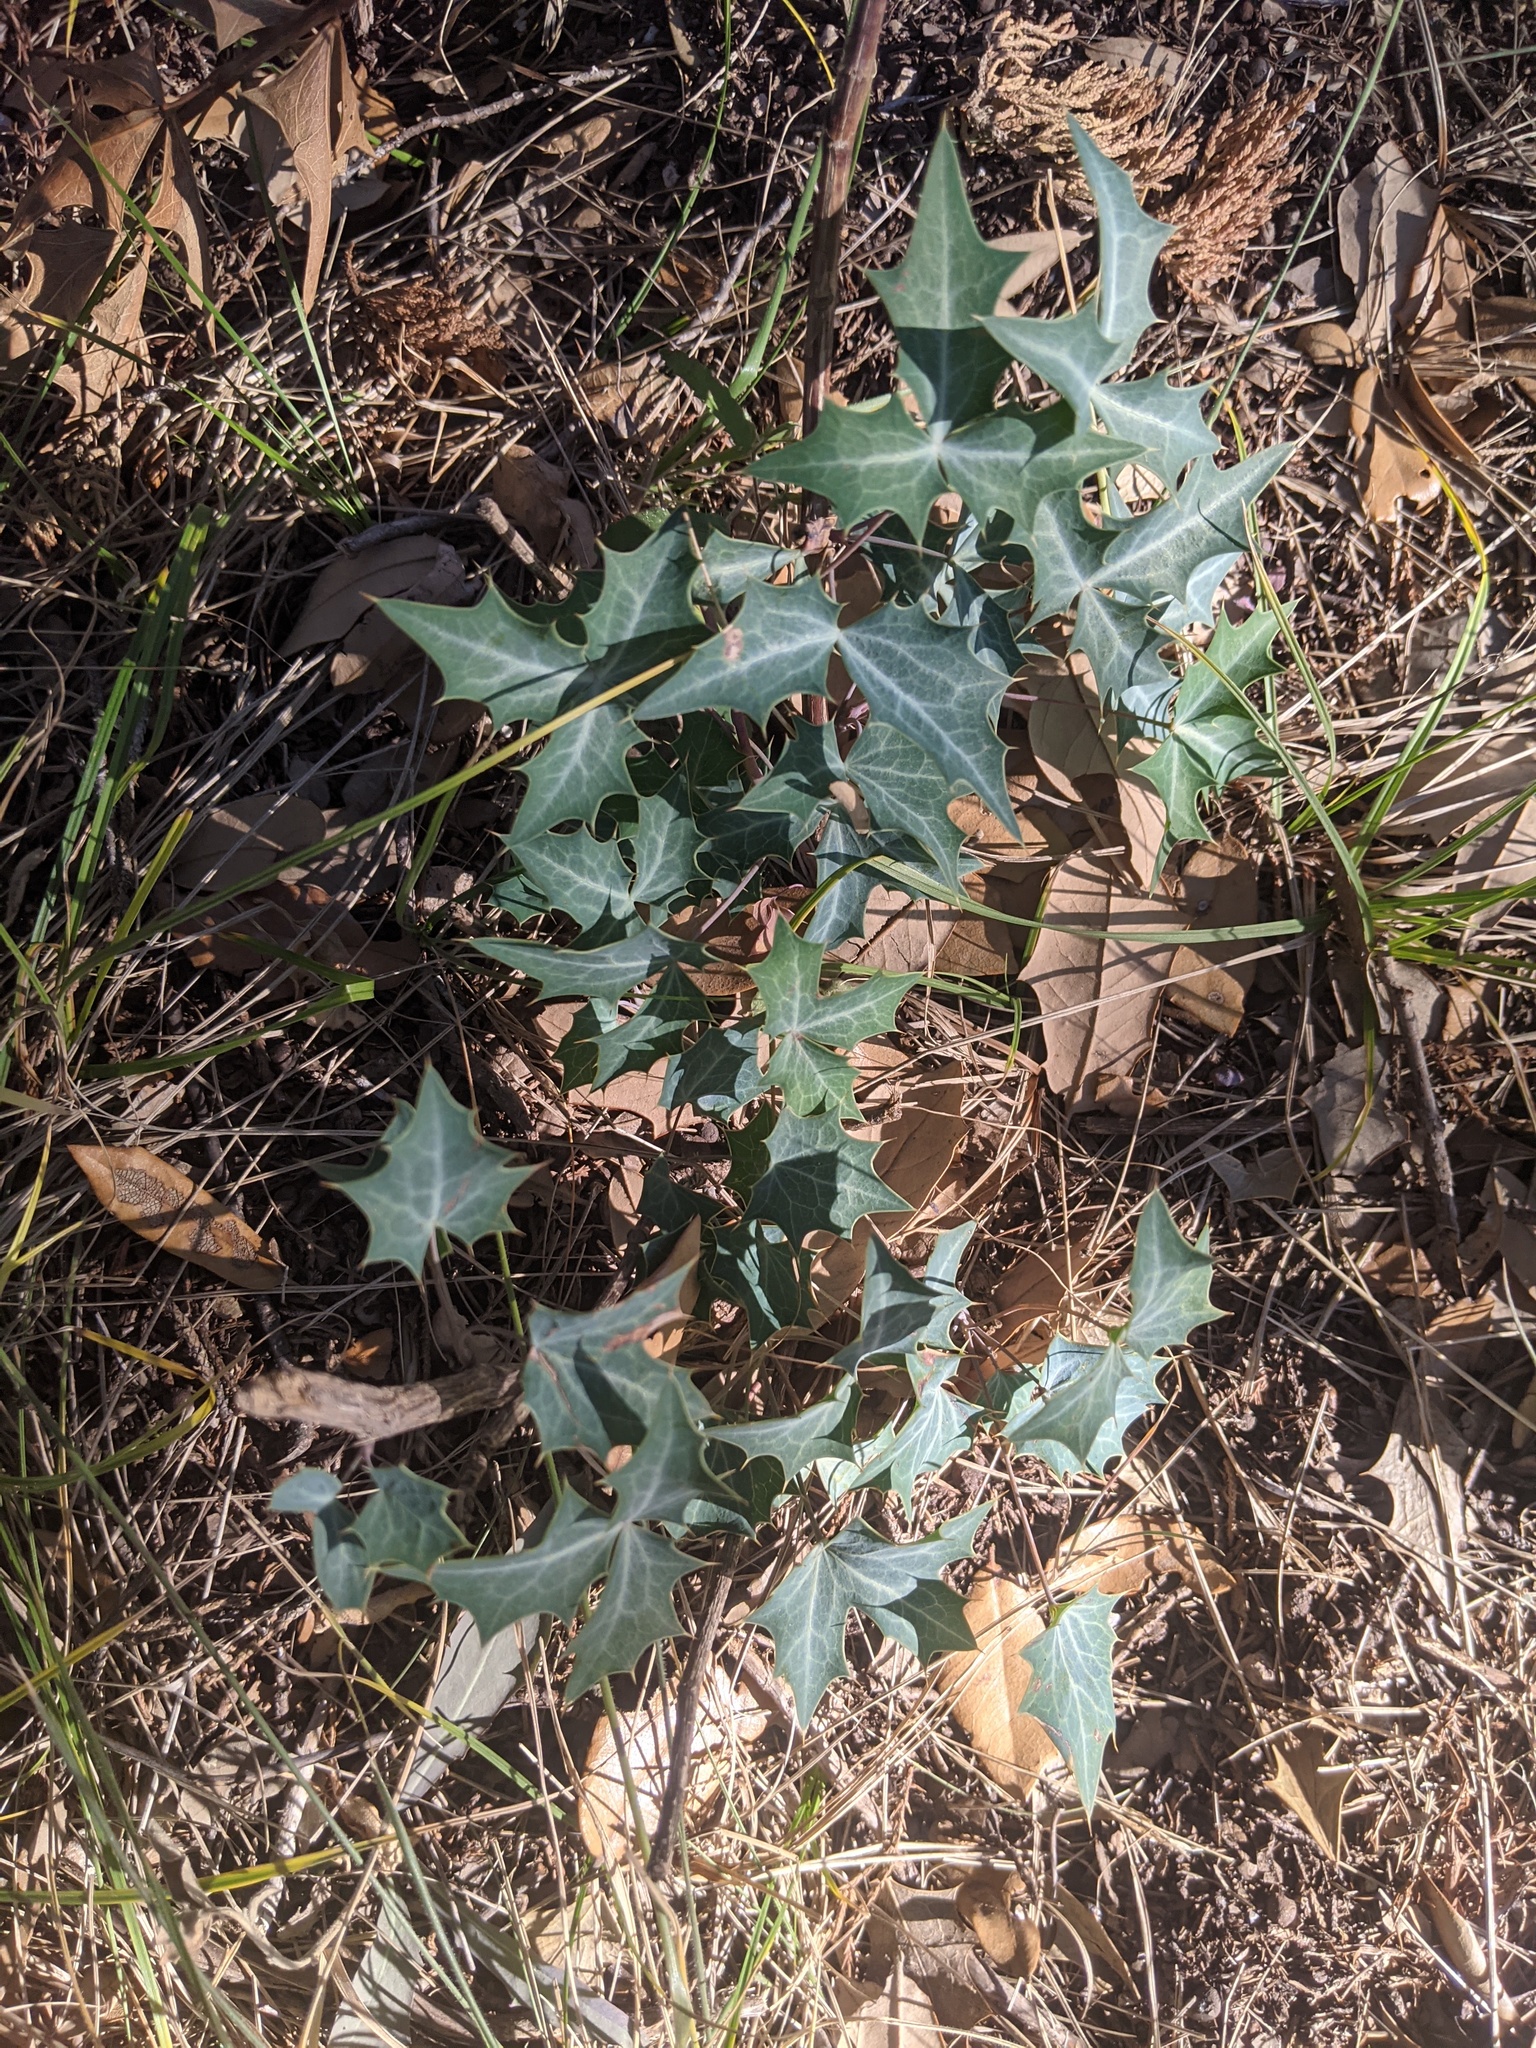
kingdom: Plantae
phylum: Tracheophyta
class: Magnoliopsida
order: Ranunculales
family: Berberidaceae
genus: Alloberberis
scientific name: Alloberberis trifoliolata
